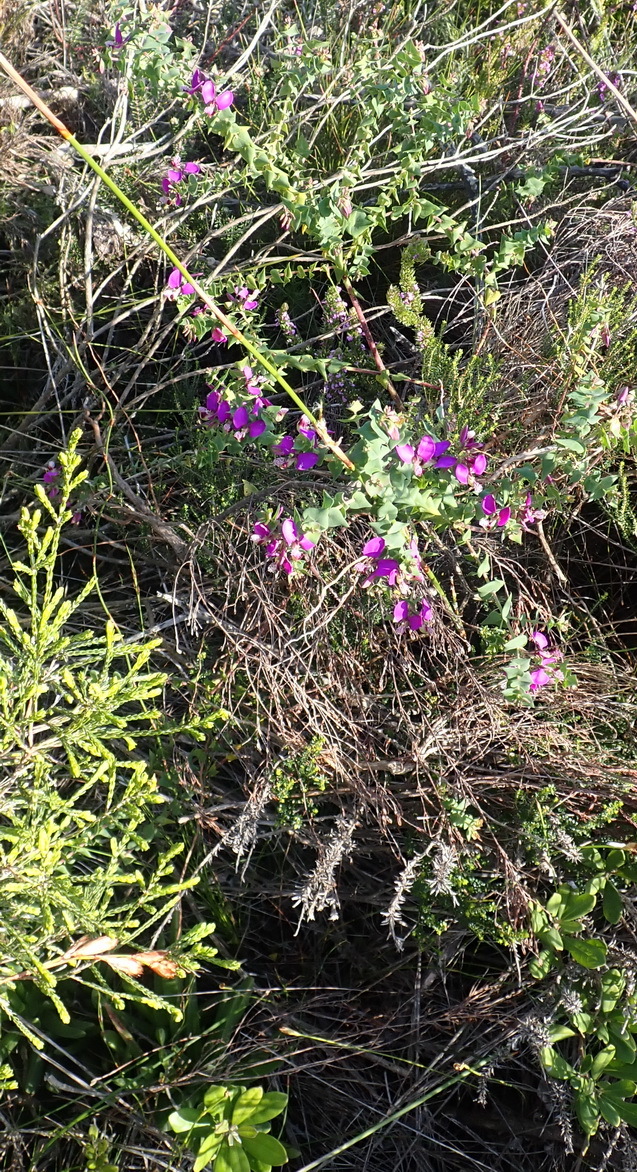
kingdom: Plantae
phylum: Tracheophyta
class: Magnoliopsida
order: Fabales
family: Polygalaceae
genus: Polygala
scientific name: Polygala fruticosa
